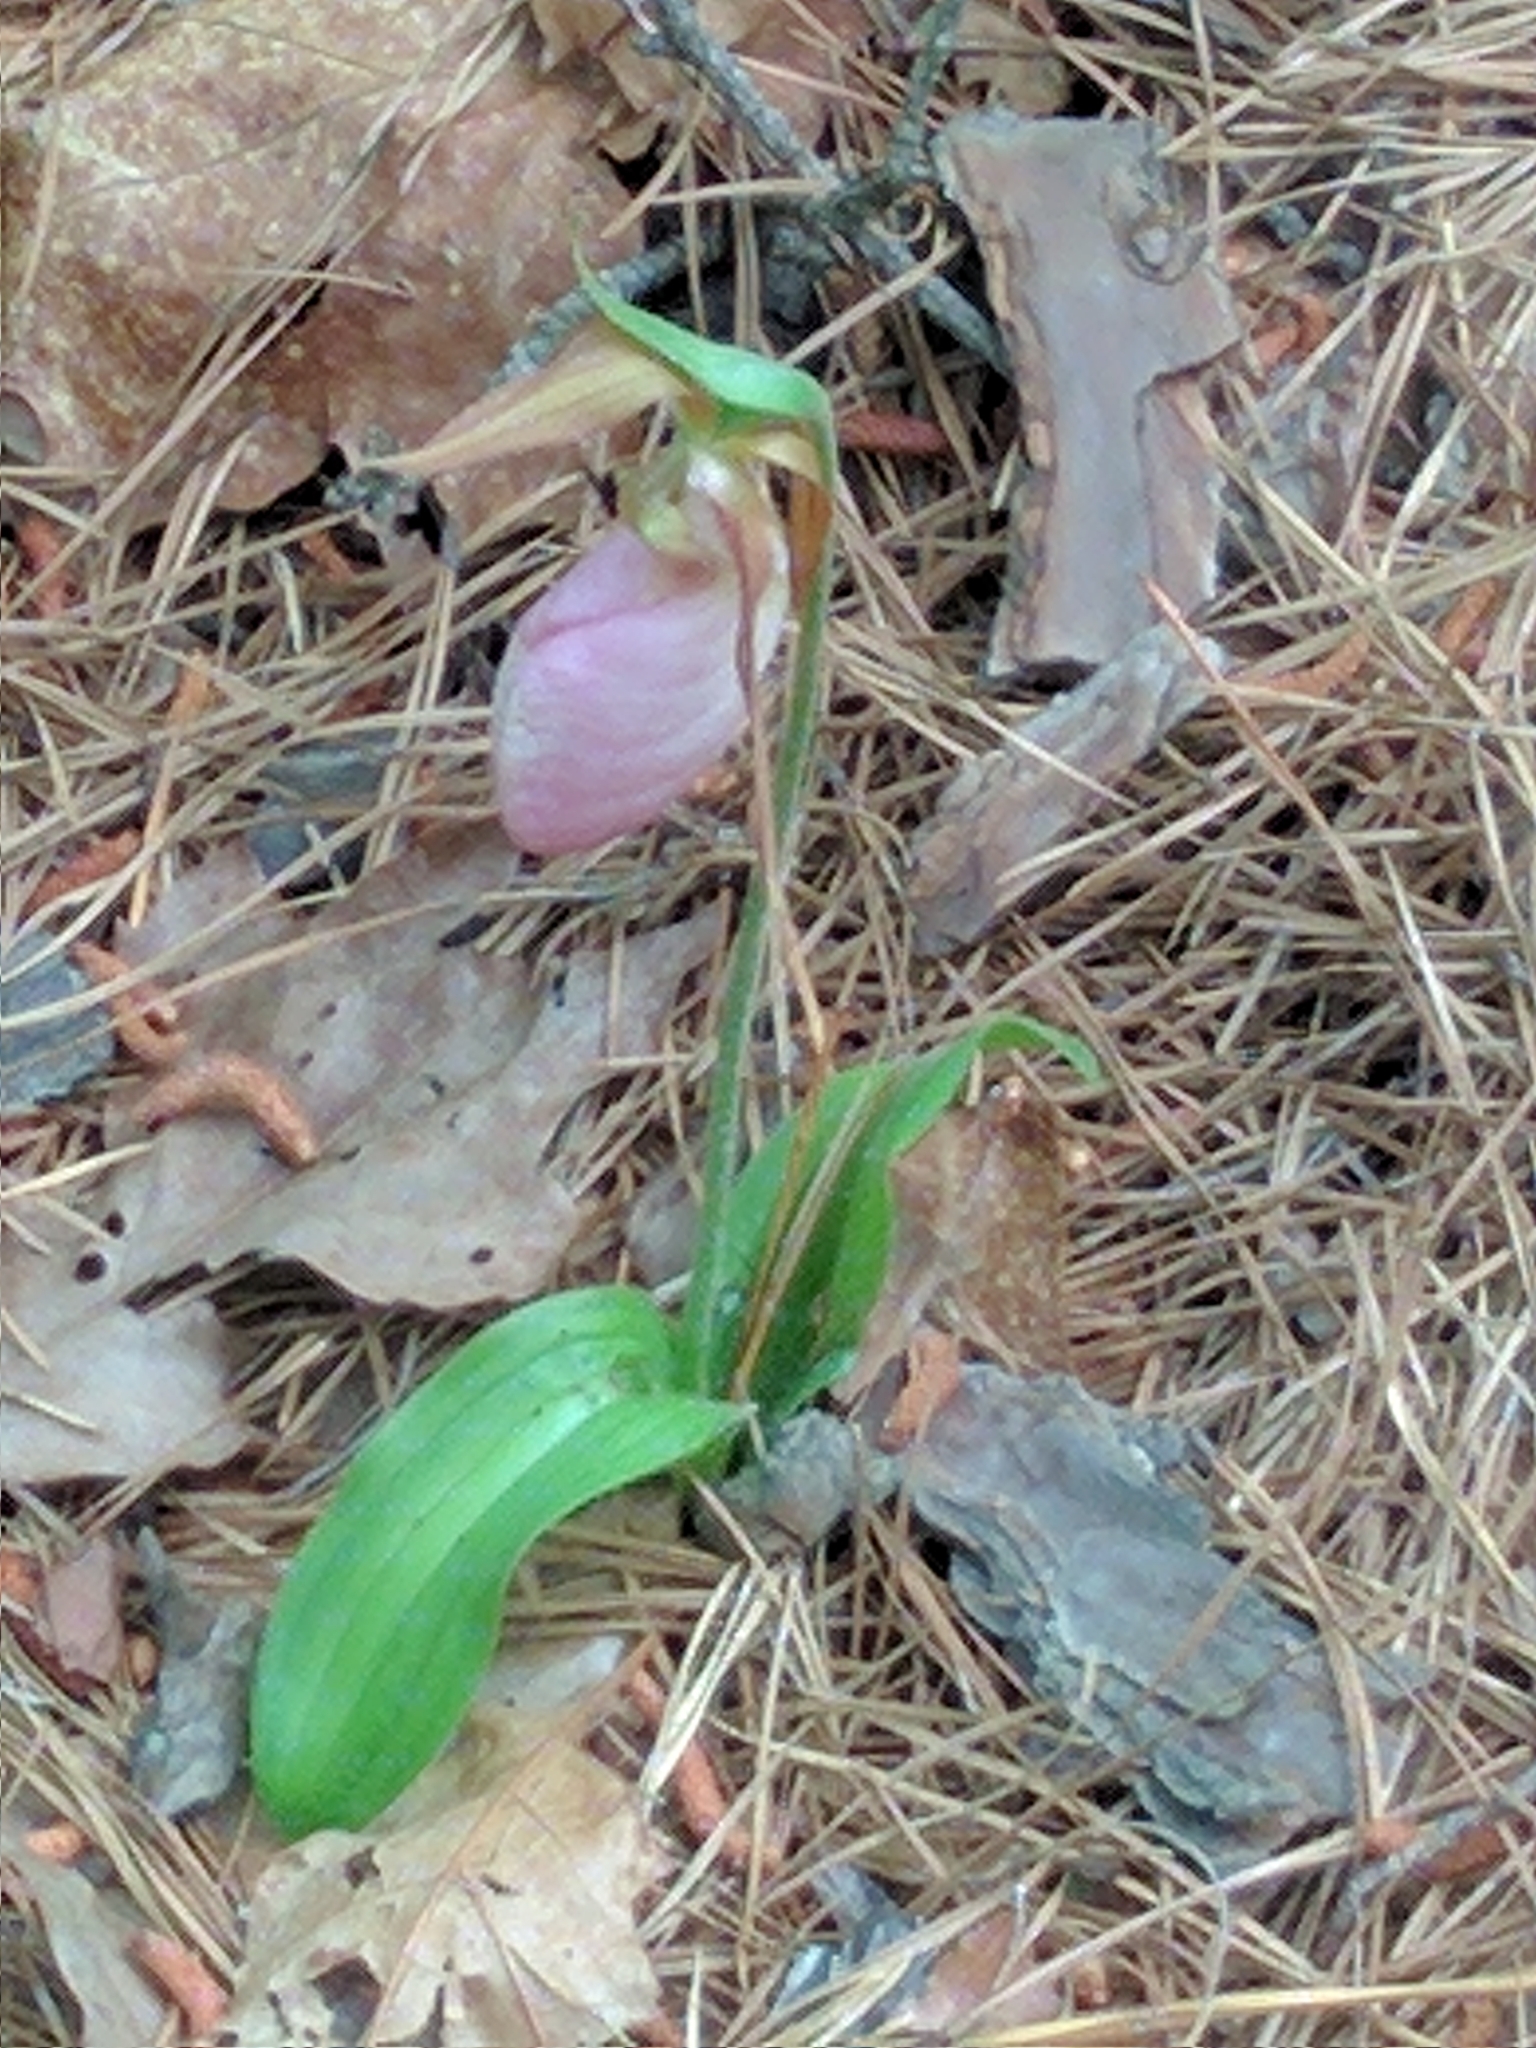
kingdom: Plantae
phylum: Tracheophyta
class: Liliopsida
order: Asparagales
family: Orchidaceae
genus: Cypripedium
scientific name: Cypripedium acaule
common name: Pink lady's-slipper
